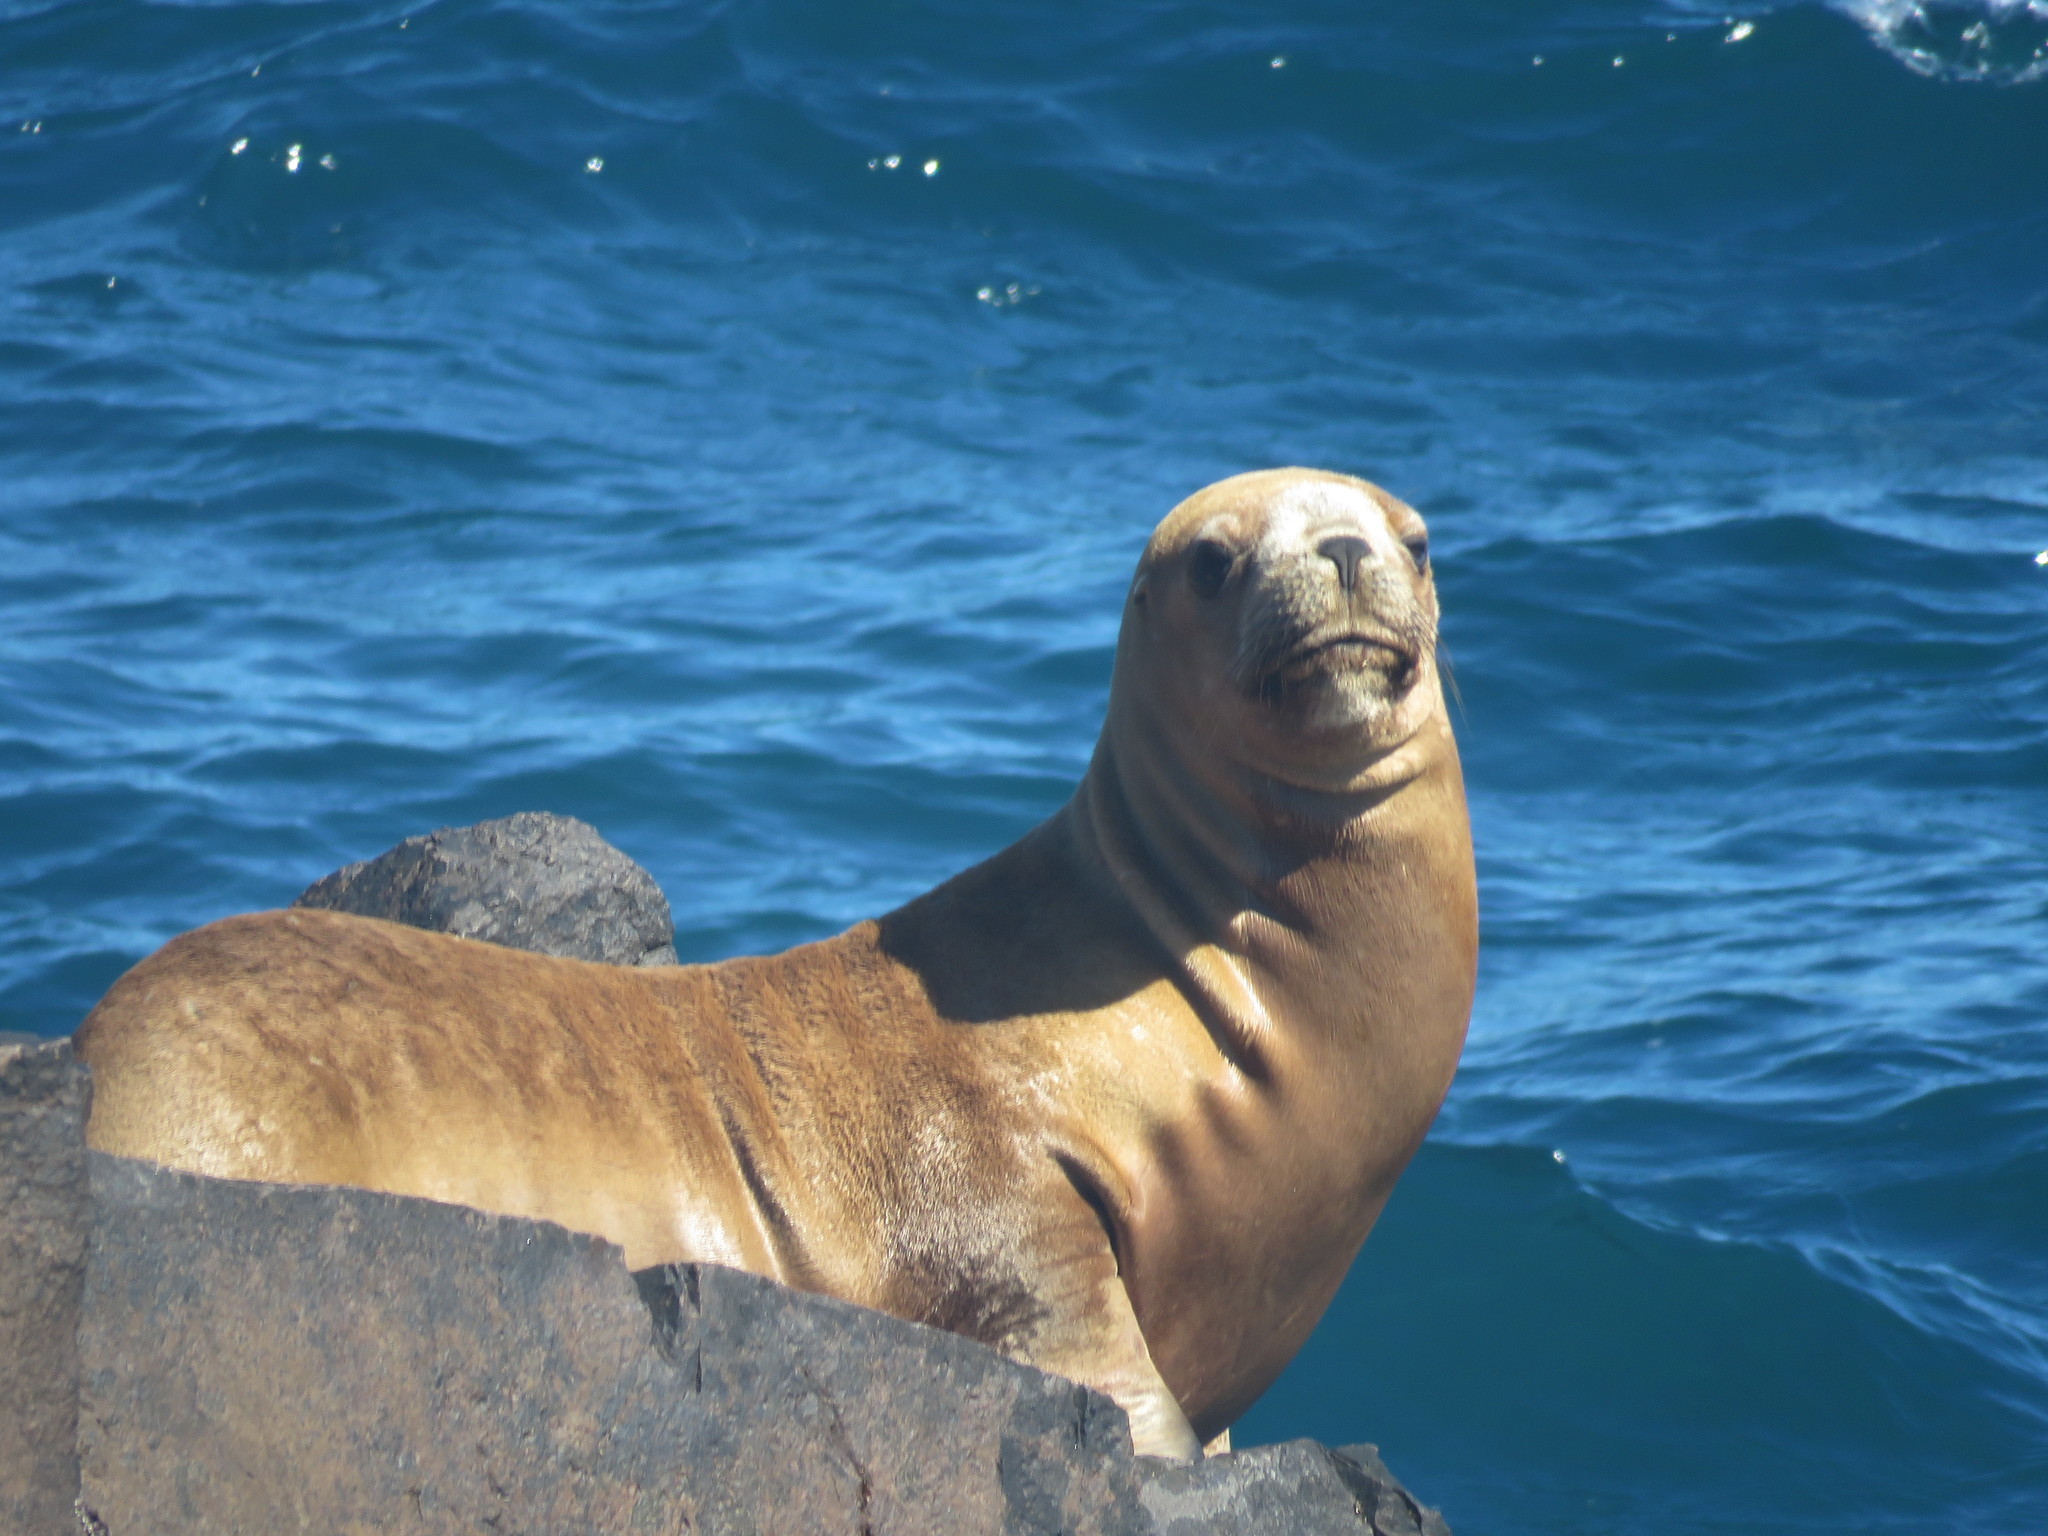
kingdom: Animalia
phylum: Chordata
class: Mammalia
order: Carnivora
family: Otariidae
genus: Otaria
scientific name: Otaria byronia
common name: South american sea lion
